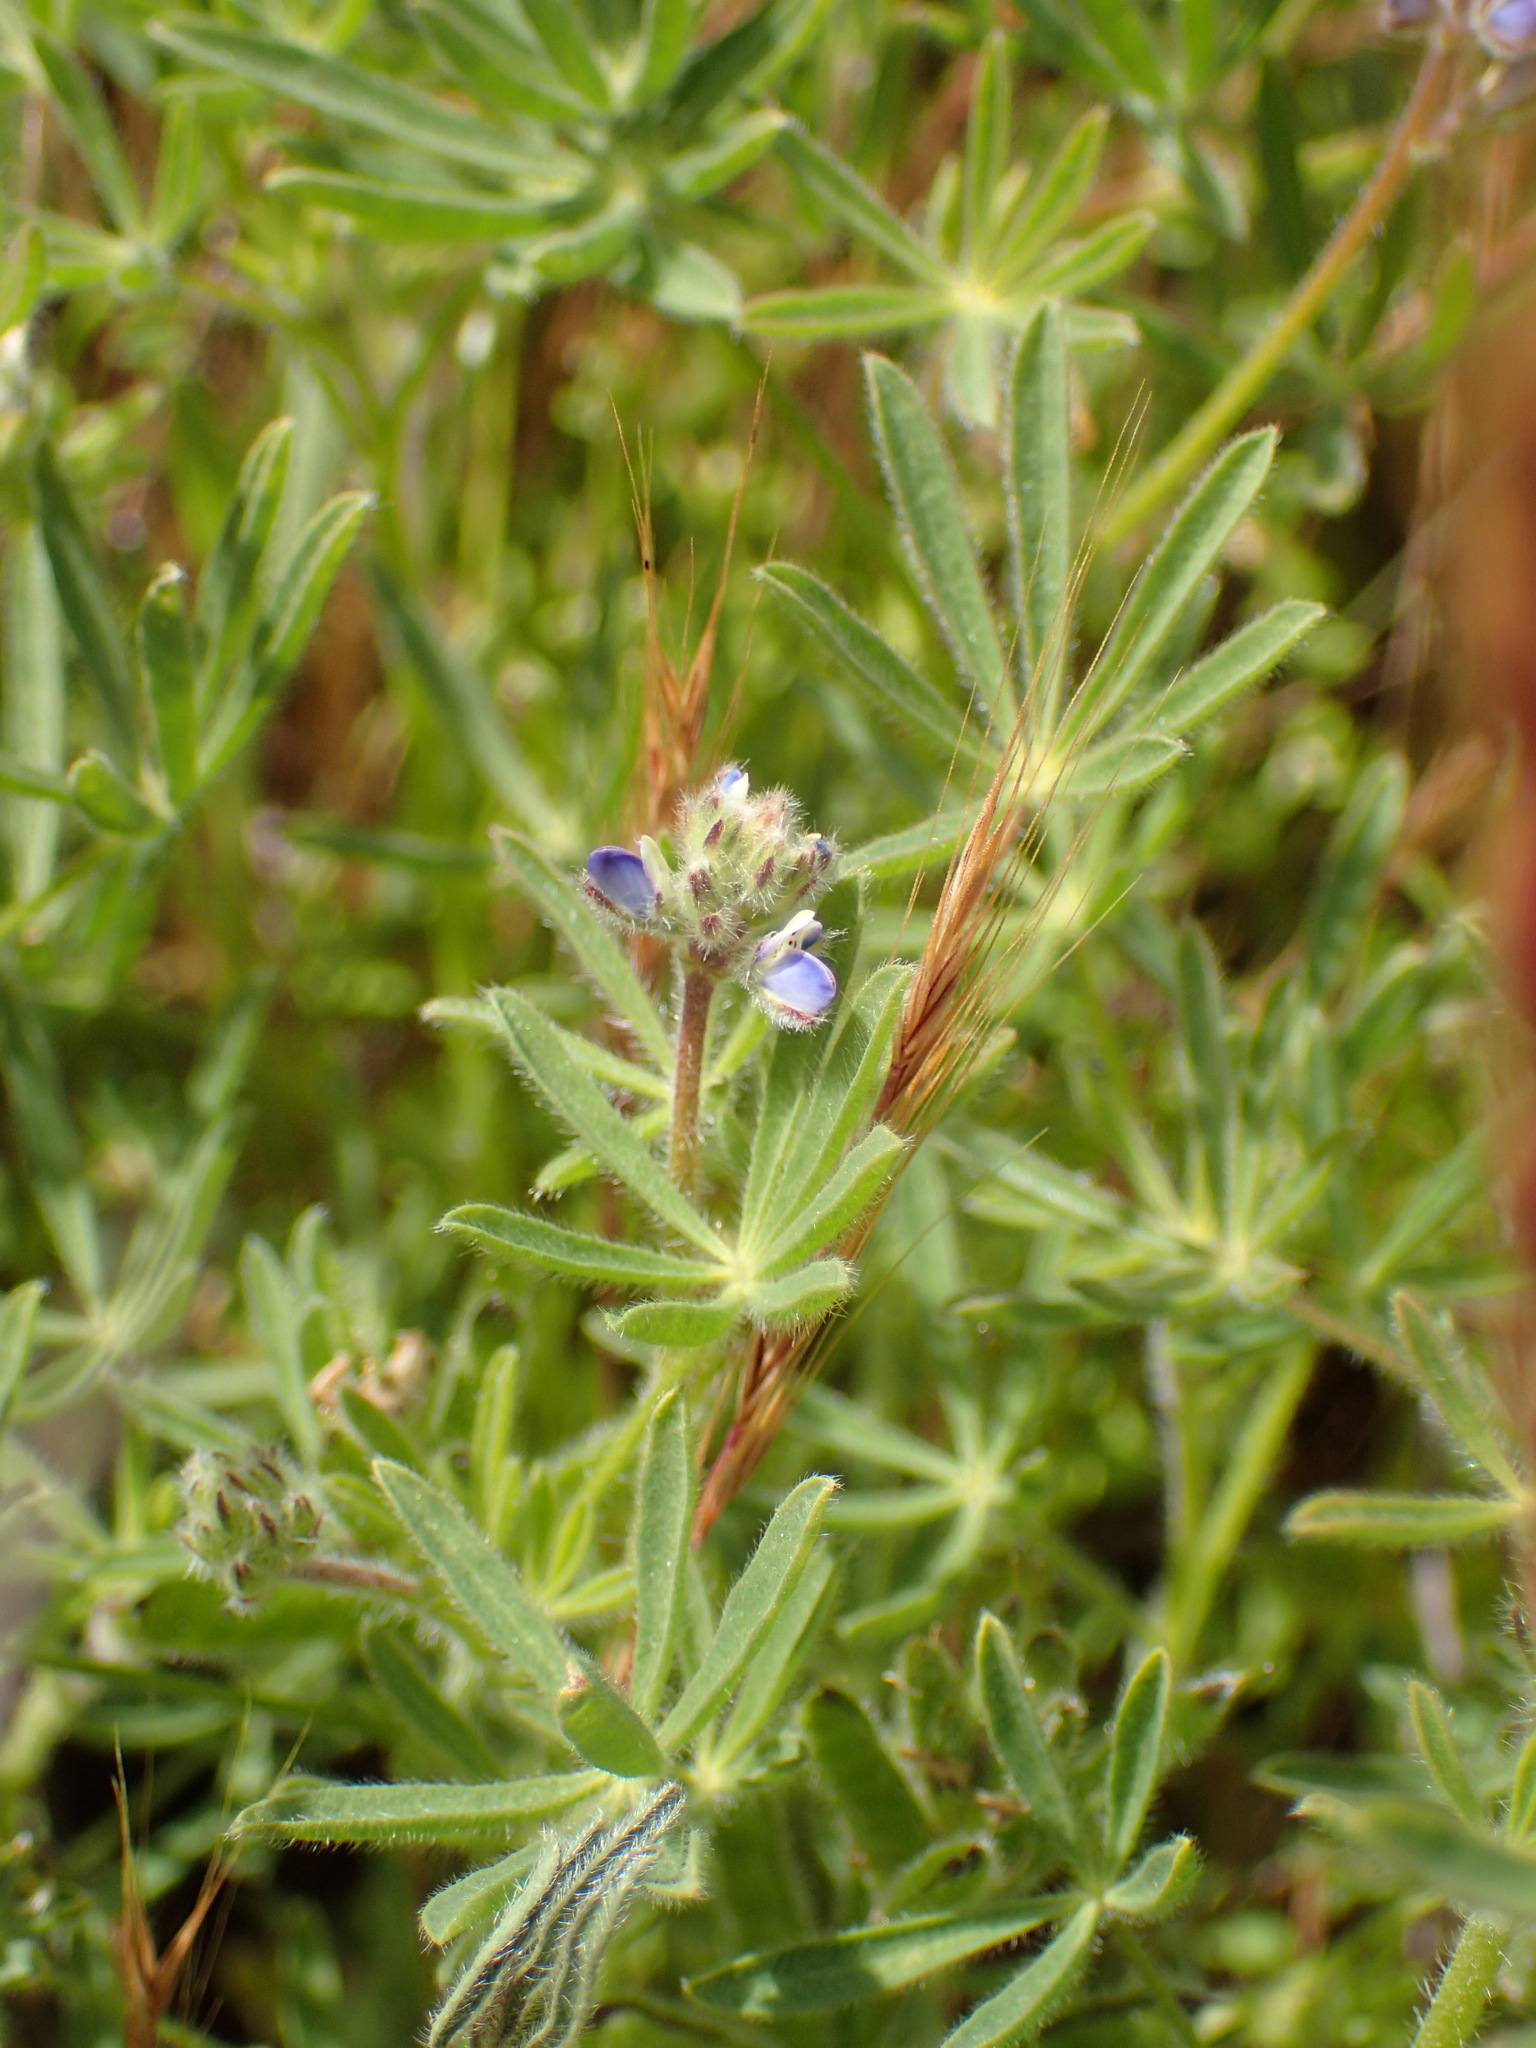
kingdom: Plantae
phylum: Tracheophyta
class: Magnoliopsida
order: Fabales
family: Fabaceae
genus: Lupinus
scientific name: Lupinus bicolor
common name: Miniature lupine
